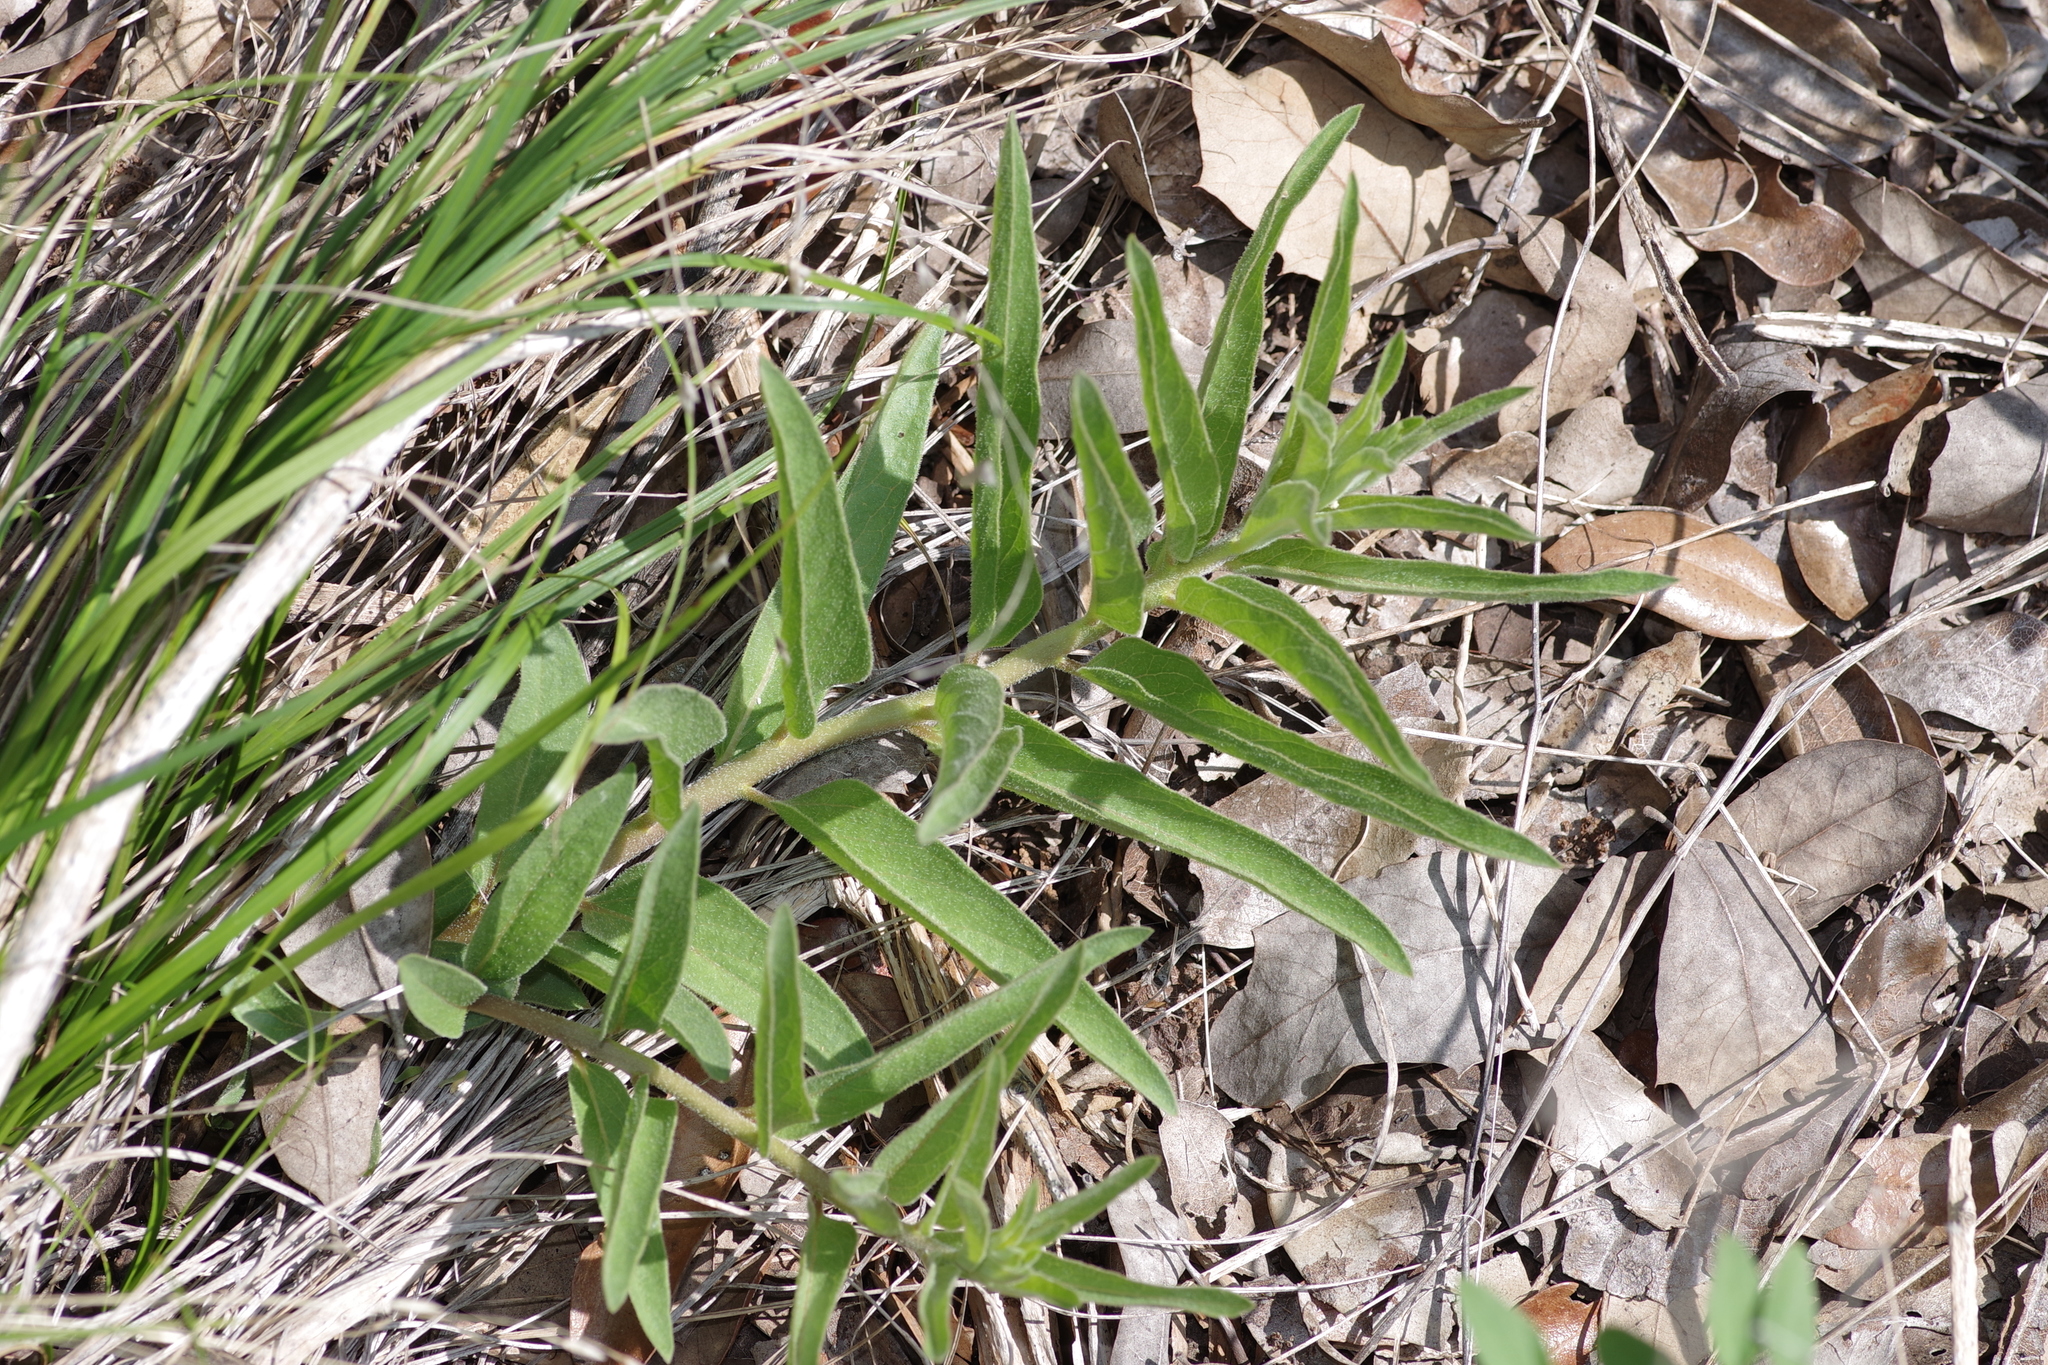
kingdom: Plantae
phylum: Tracheophyta
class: Magnoliopsida
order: Gentianales
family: Apocynaceae
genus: Asclepias
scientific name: Asclepias asperula
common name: Antelope horns
